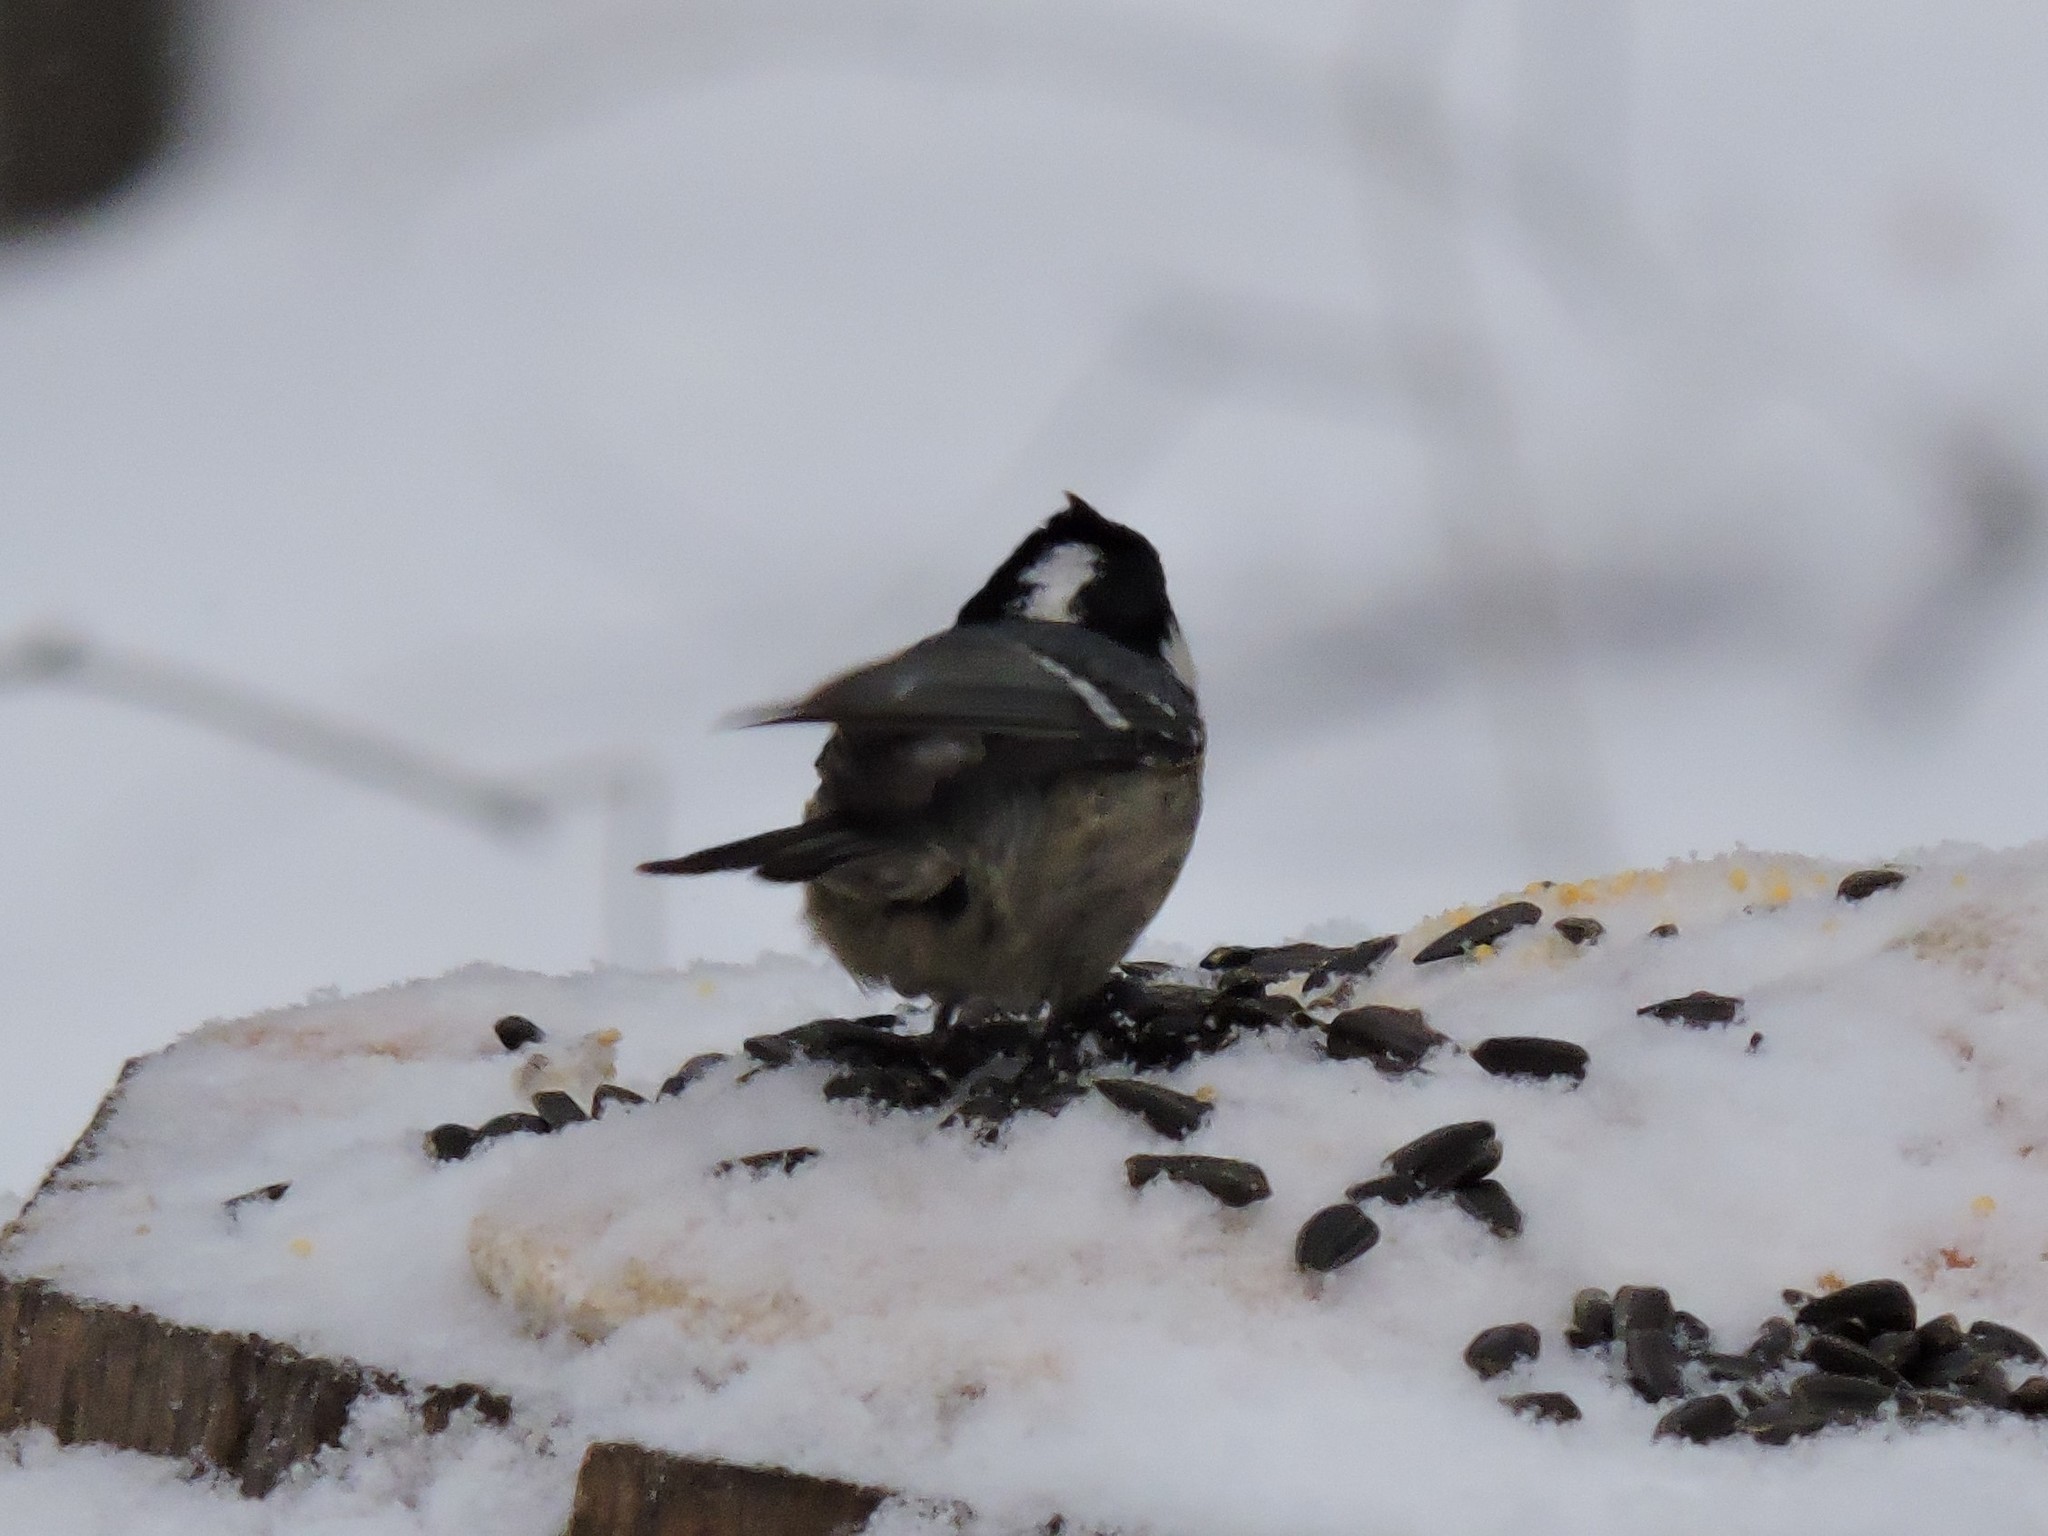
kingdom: Animalia
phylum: Chordata
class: Aves
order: Passeriformes
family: Paridae
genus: Periparus
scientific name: Periparus ater
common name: Coal tit
